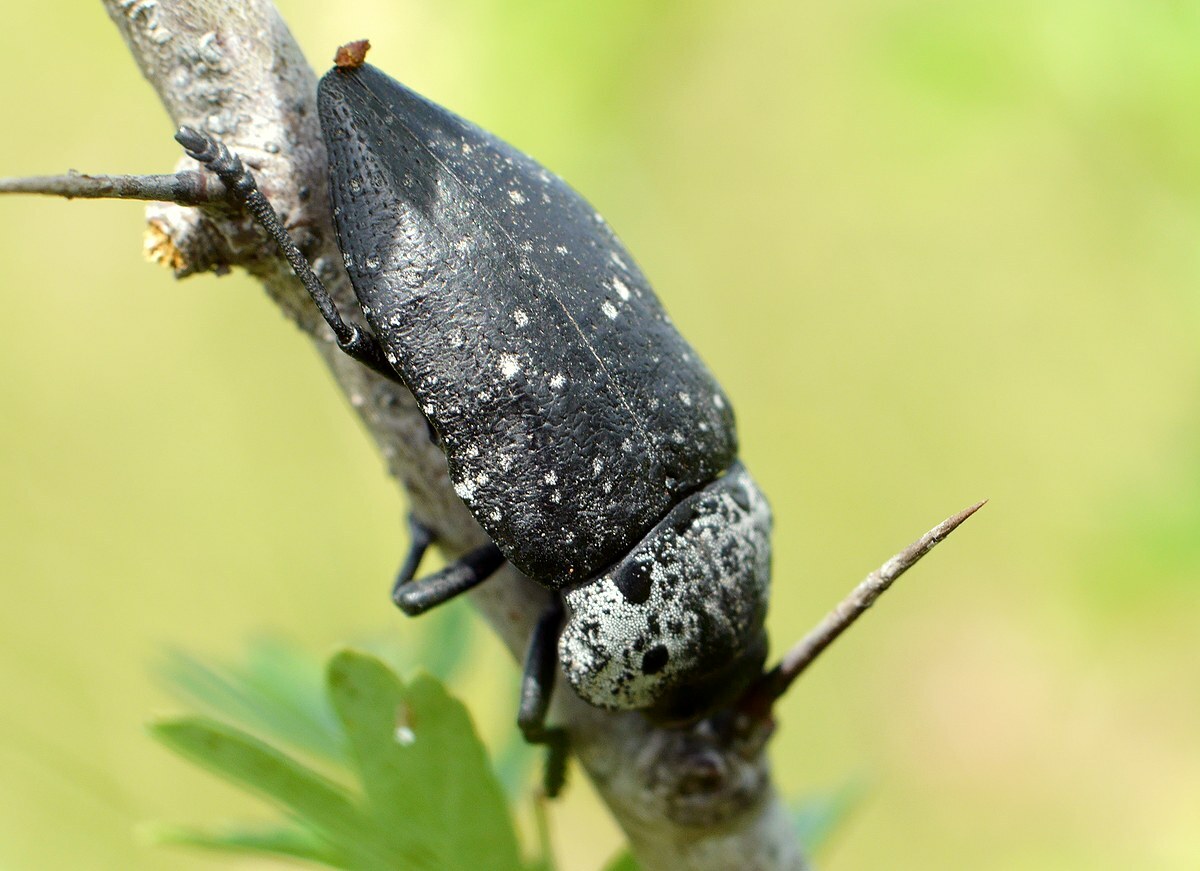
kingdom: Animalia
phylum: Arthropoda
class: Insecta
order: Coleoptera
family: Buprestidae
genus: Capnodis
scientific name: Capnodis tenebrionis
